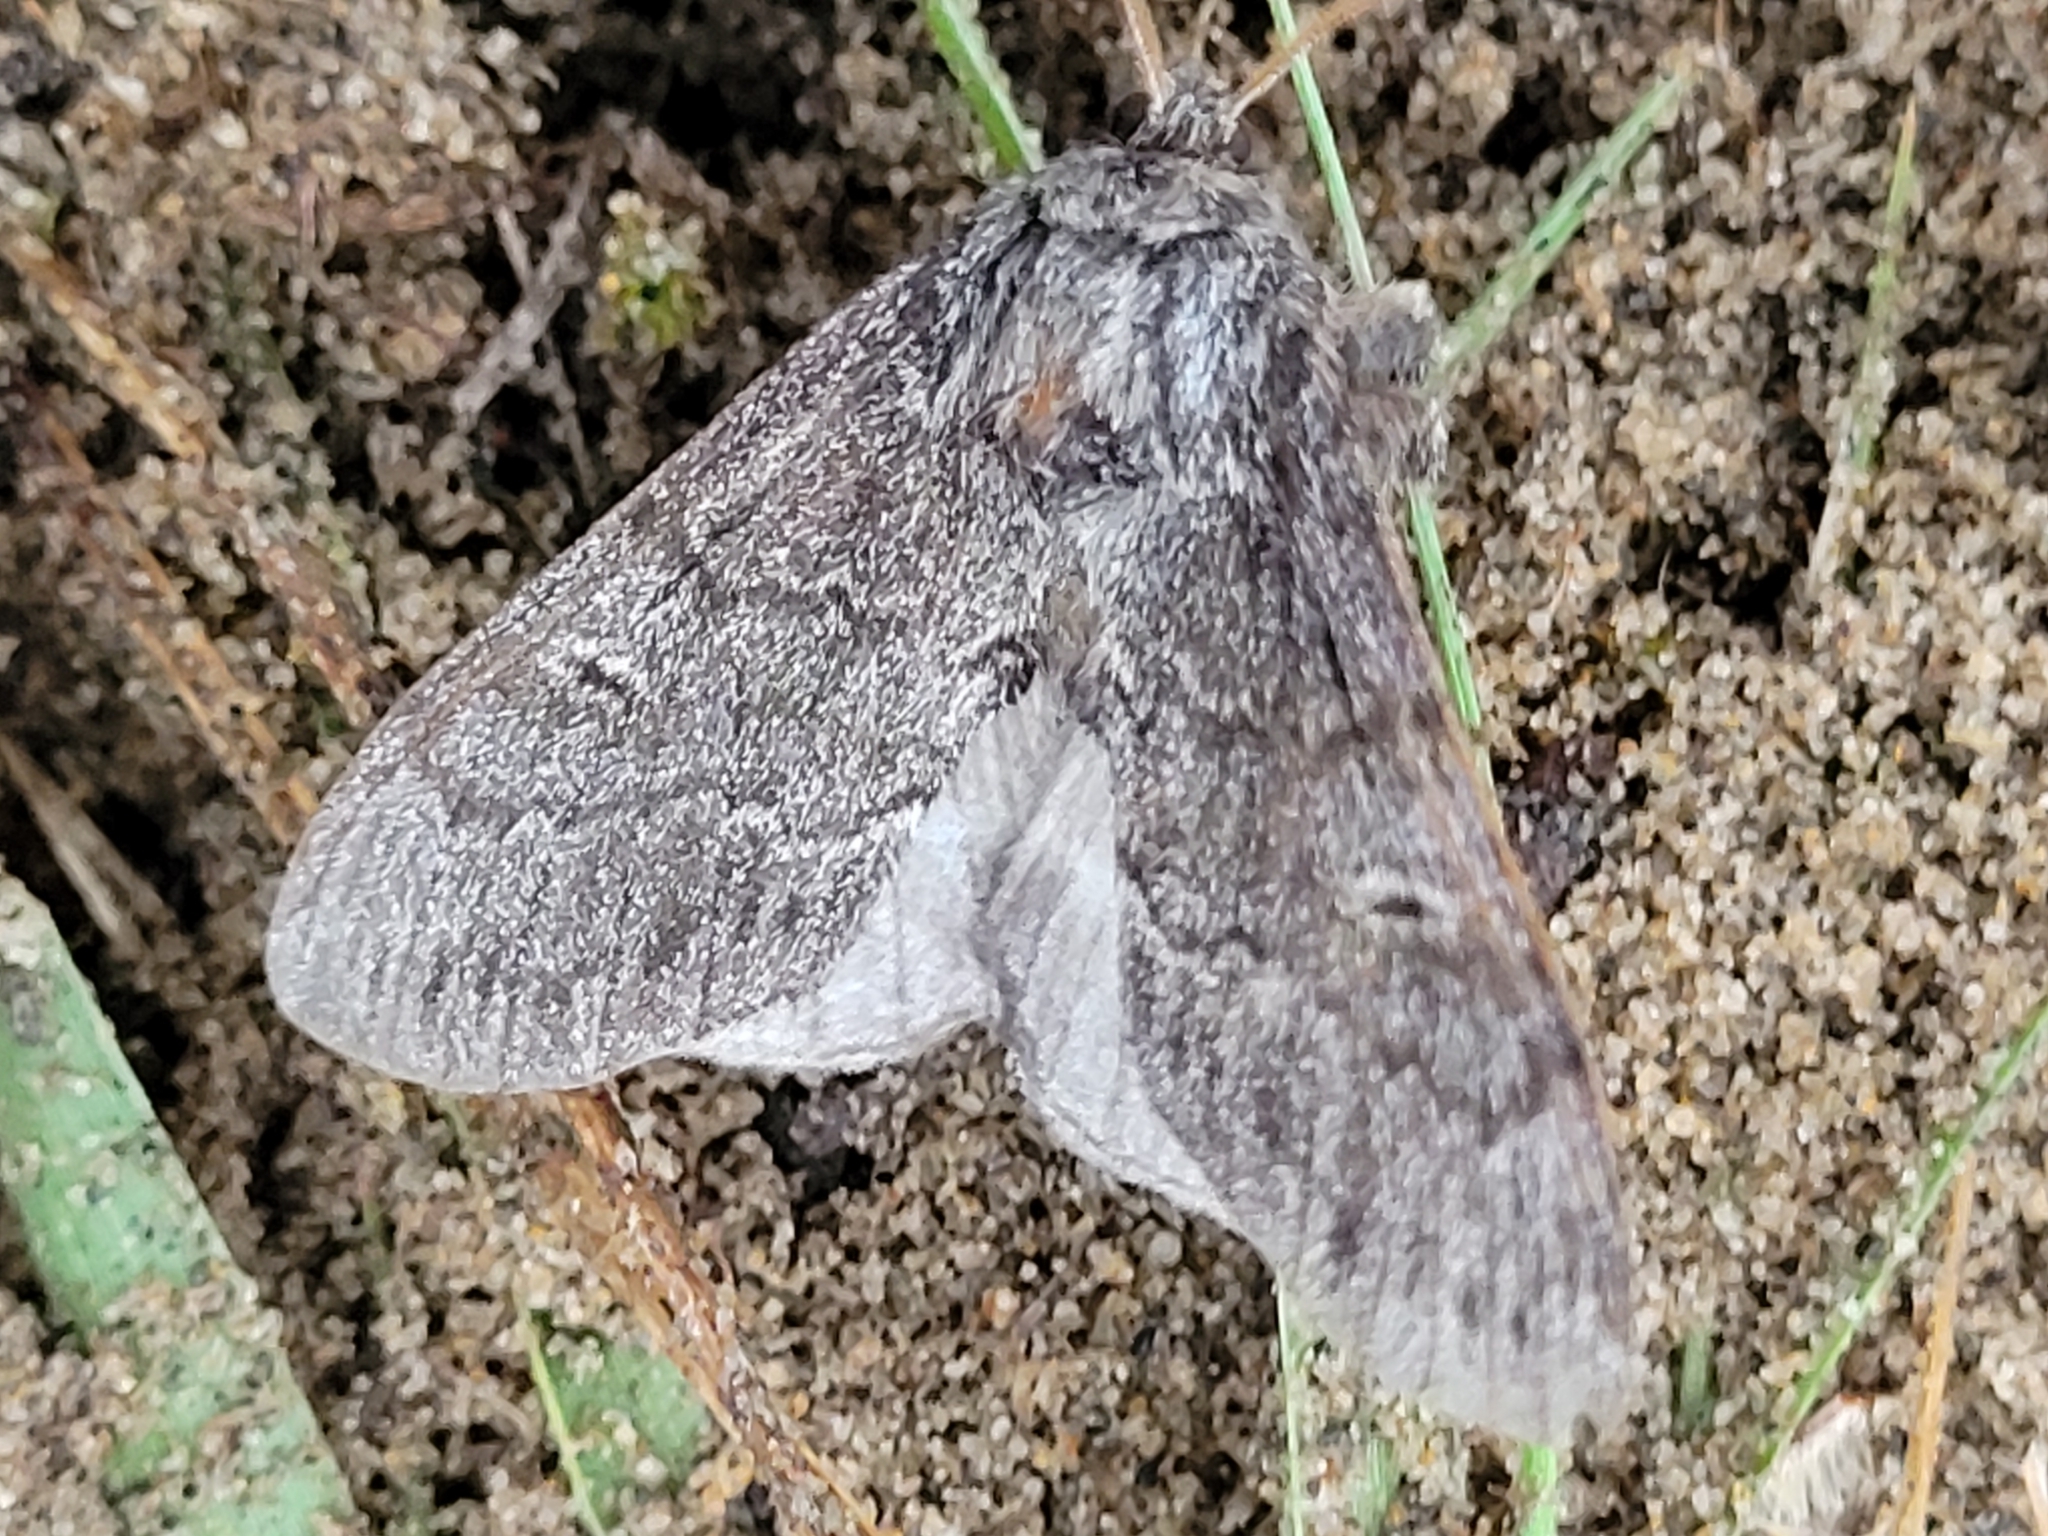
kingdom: Animalia
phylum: Arthropoda
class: Insecta
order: Lepidoptera
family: Notodontidae
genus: Notodonta
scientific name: Notodonta torva
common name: Large dark prominent
